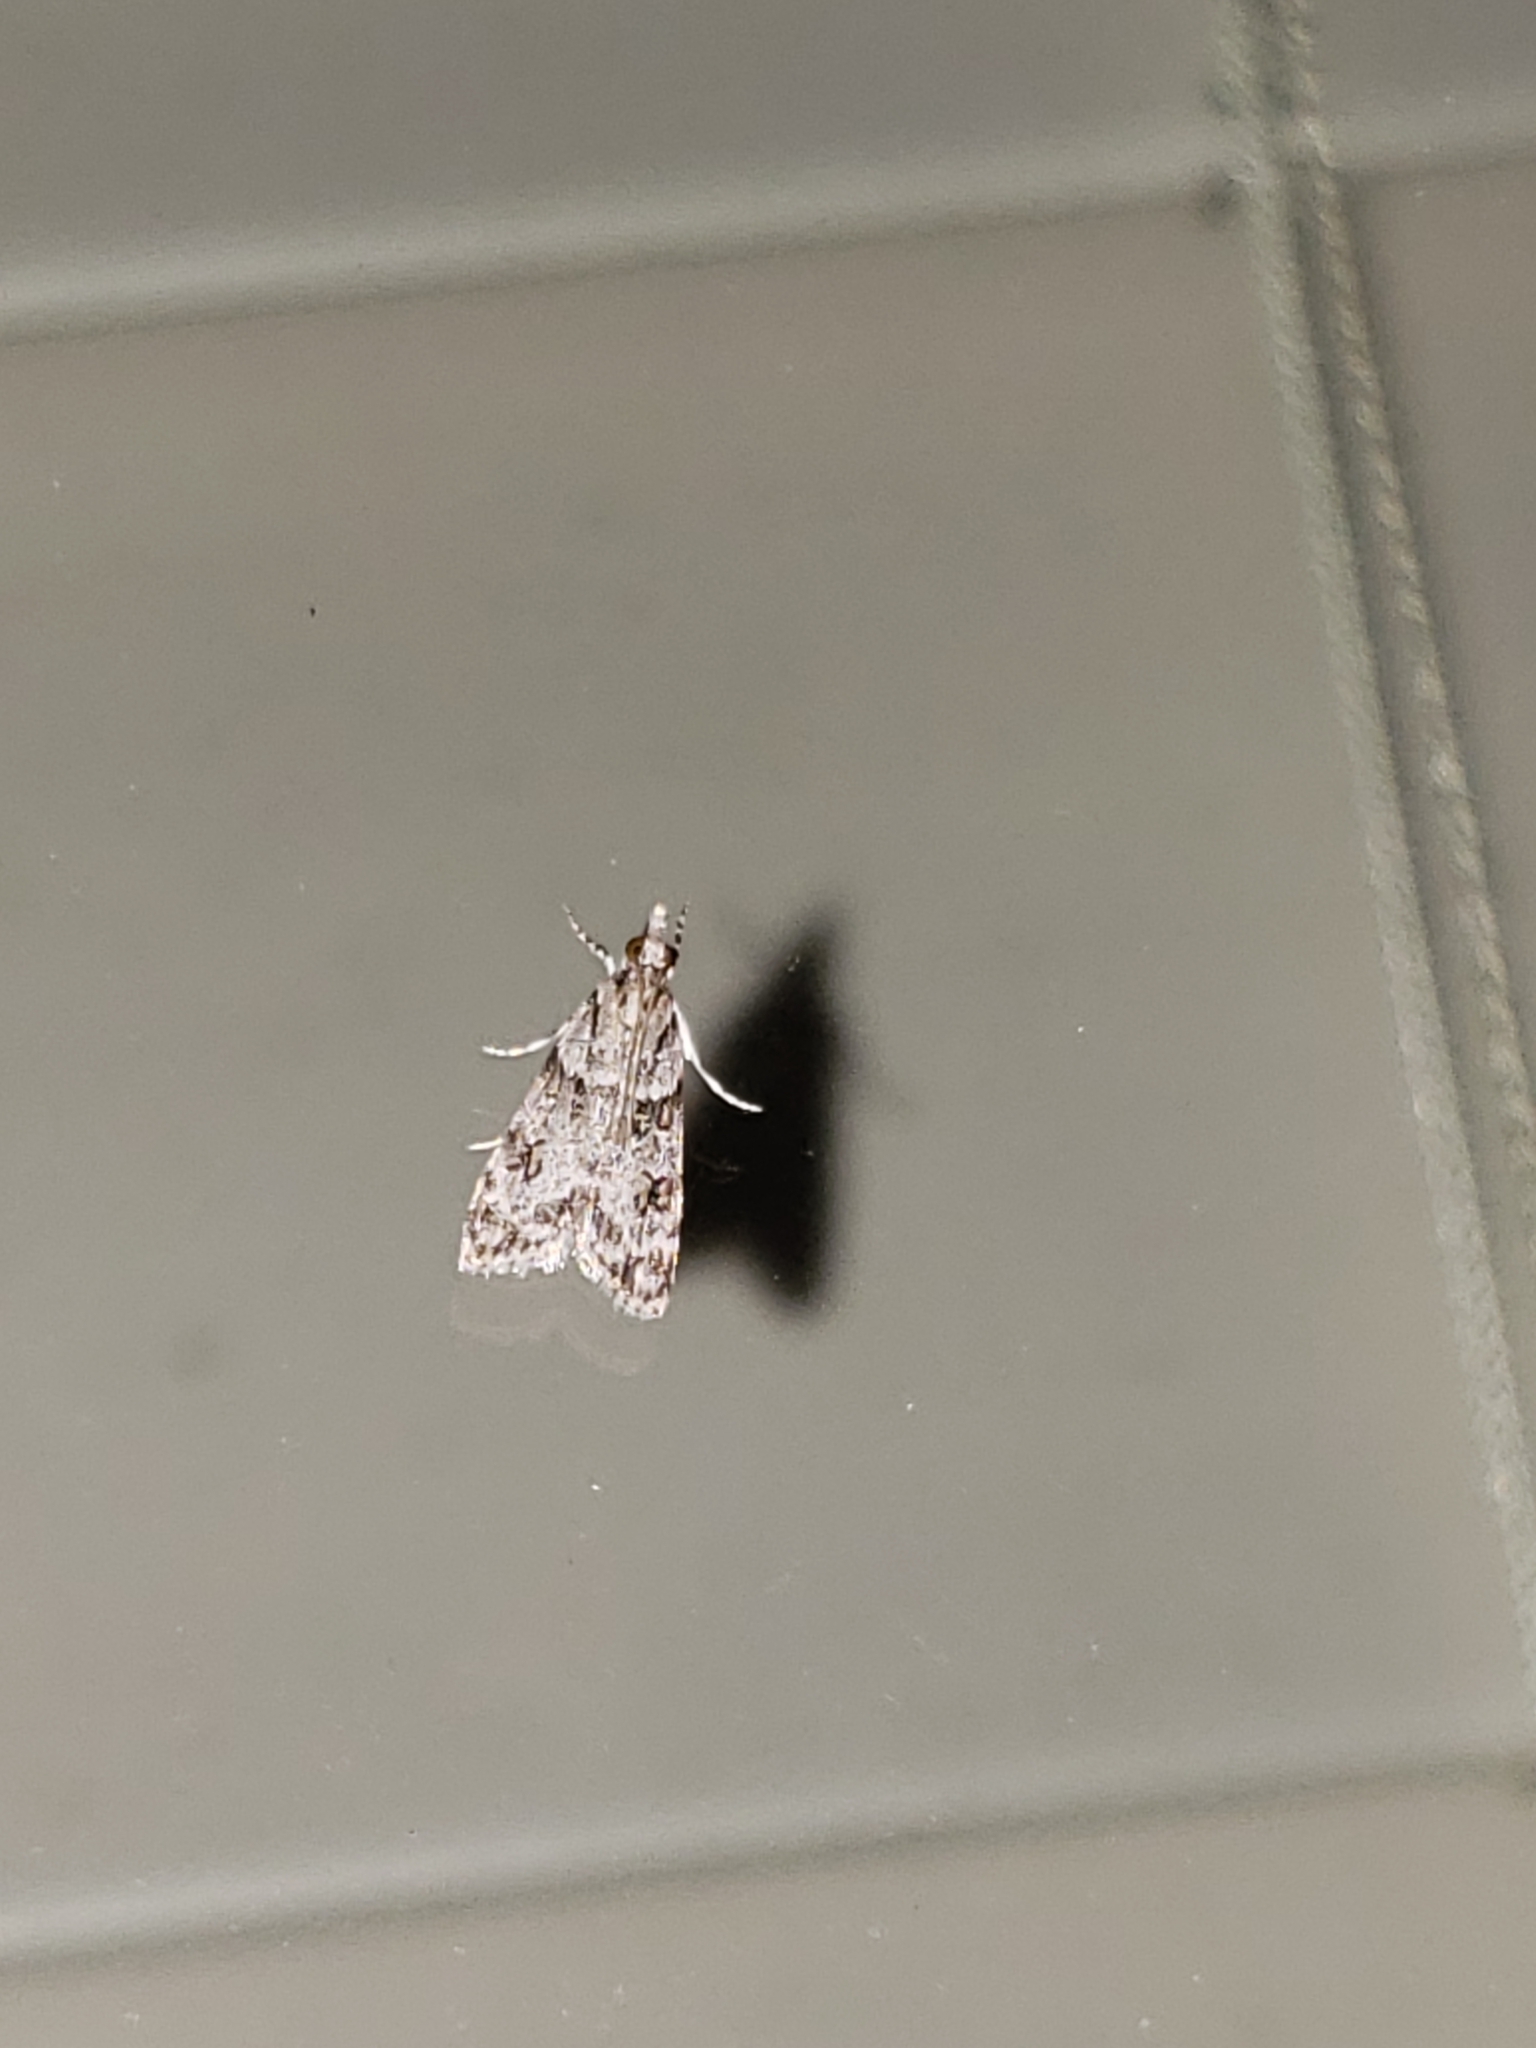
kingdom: Animalia
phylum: Arthropoda
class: Insecta
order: Lepidoptera
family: Crambidae
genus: Scoparia
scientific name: Scoparia biplagialis
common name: Double-striped scoparia moth
